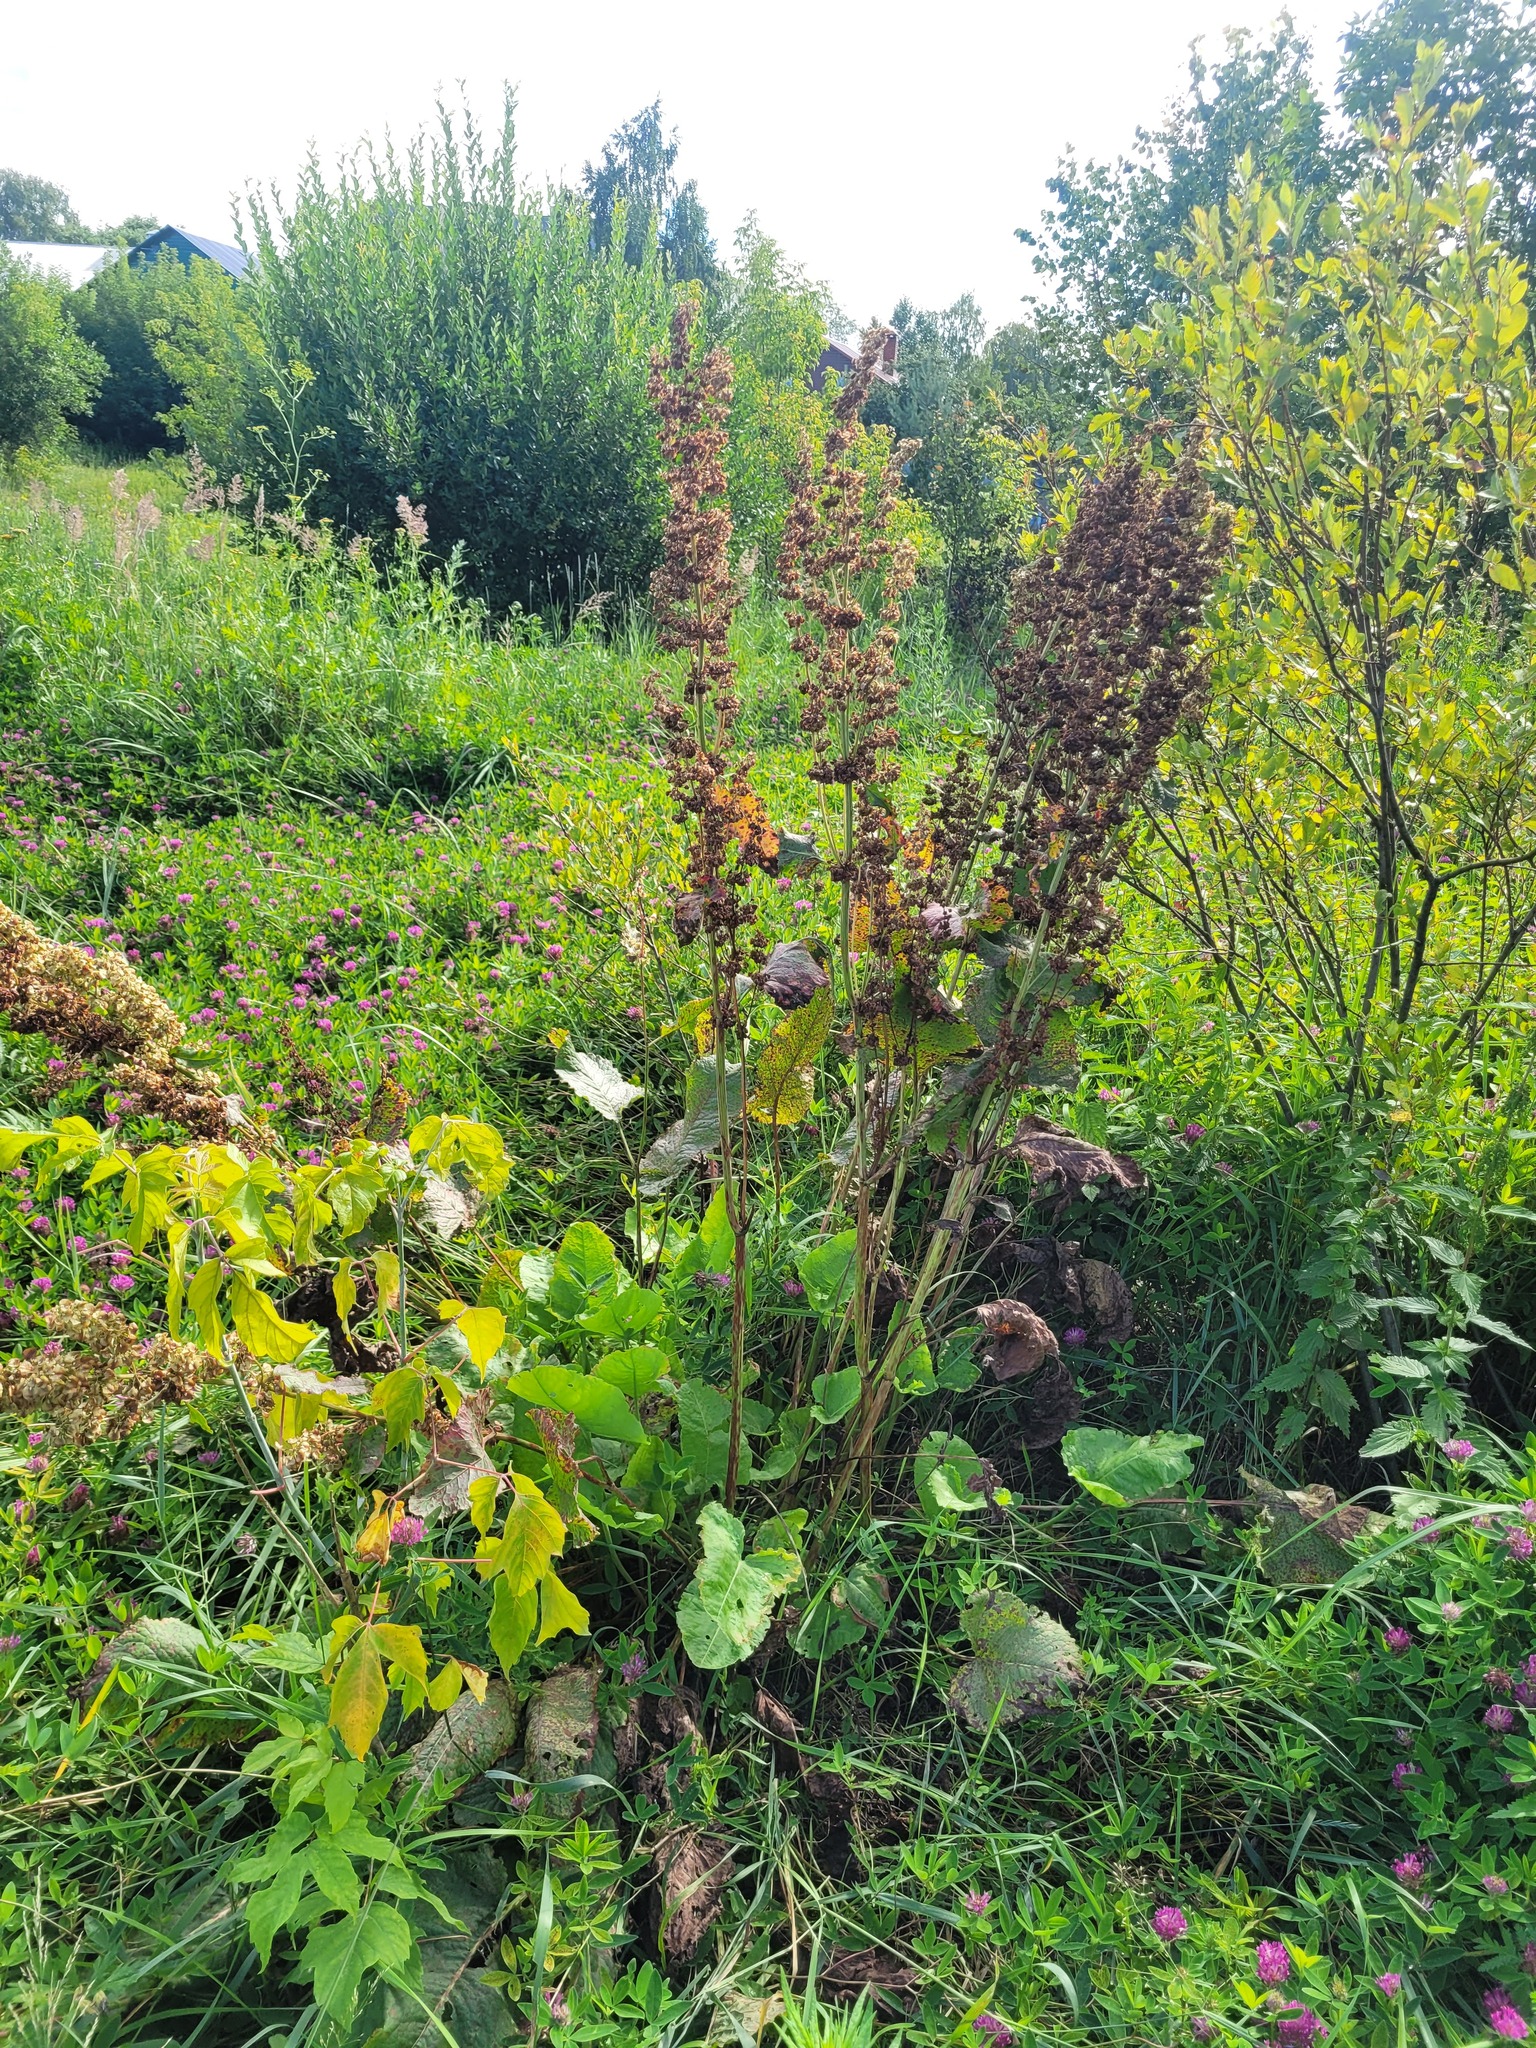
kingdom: Plantae
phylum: Tracheophyta
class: Magnoliopsida
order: Caryophyllales
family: Polygonaceae
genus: Rumex
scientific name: Rumex confertus
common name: Russian dock
